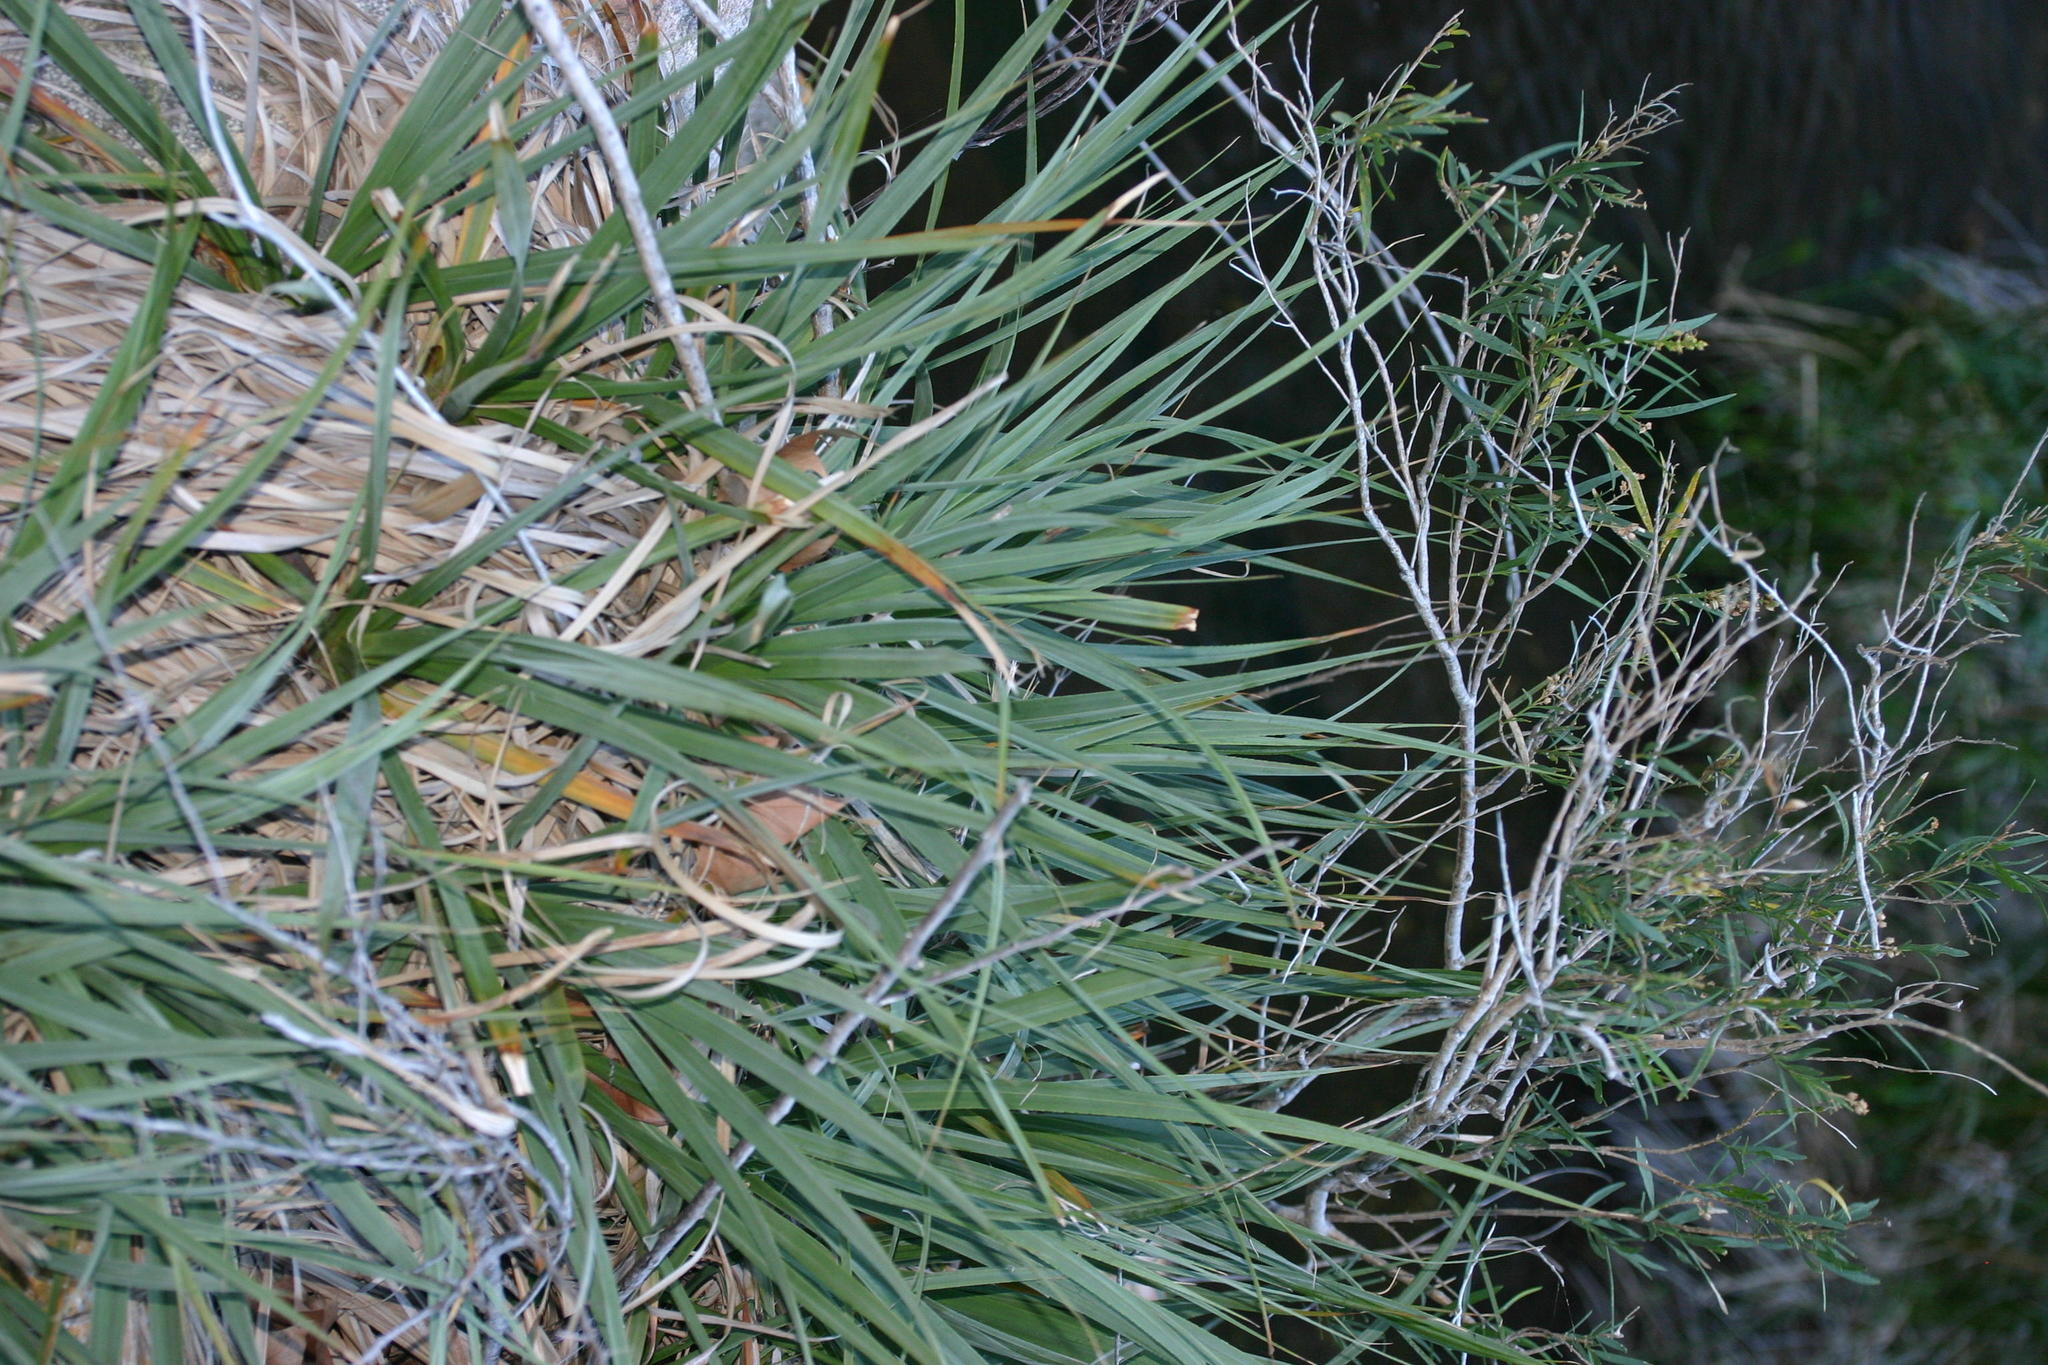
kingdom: Plantae
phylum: Tracheophyta
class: Liliopsida
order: Poales
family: Thurniaceae
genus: Prionium
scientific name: Prionium serratum
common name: Palmiet
